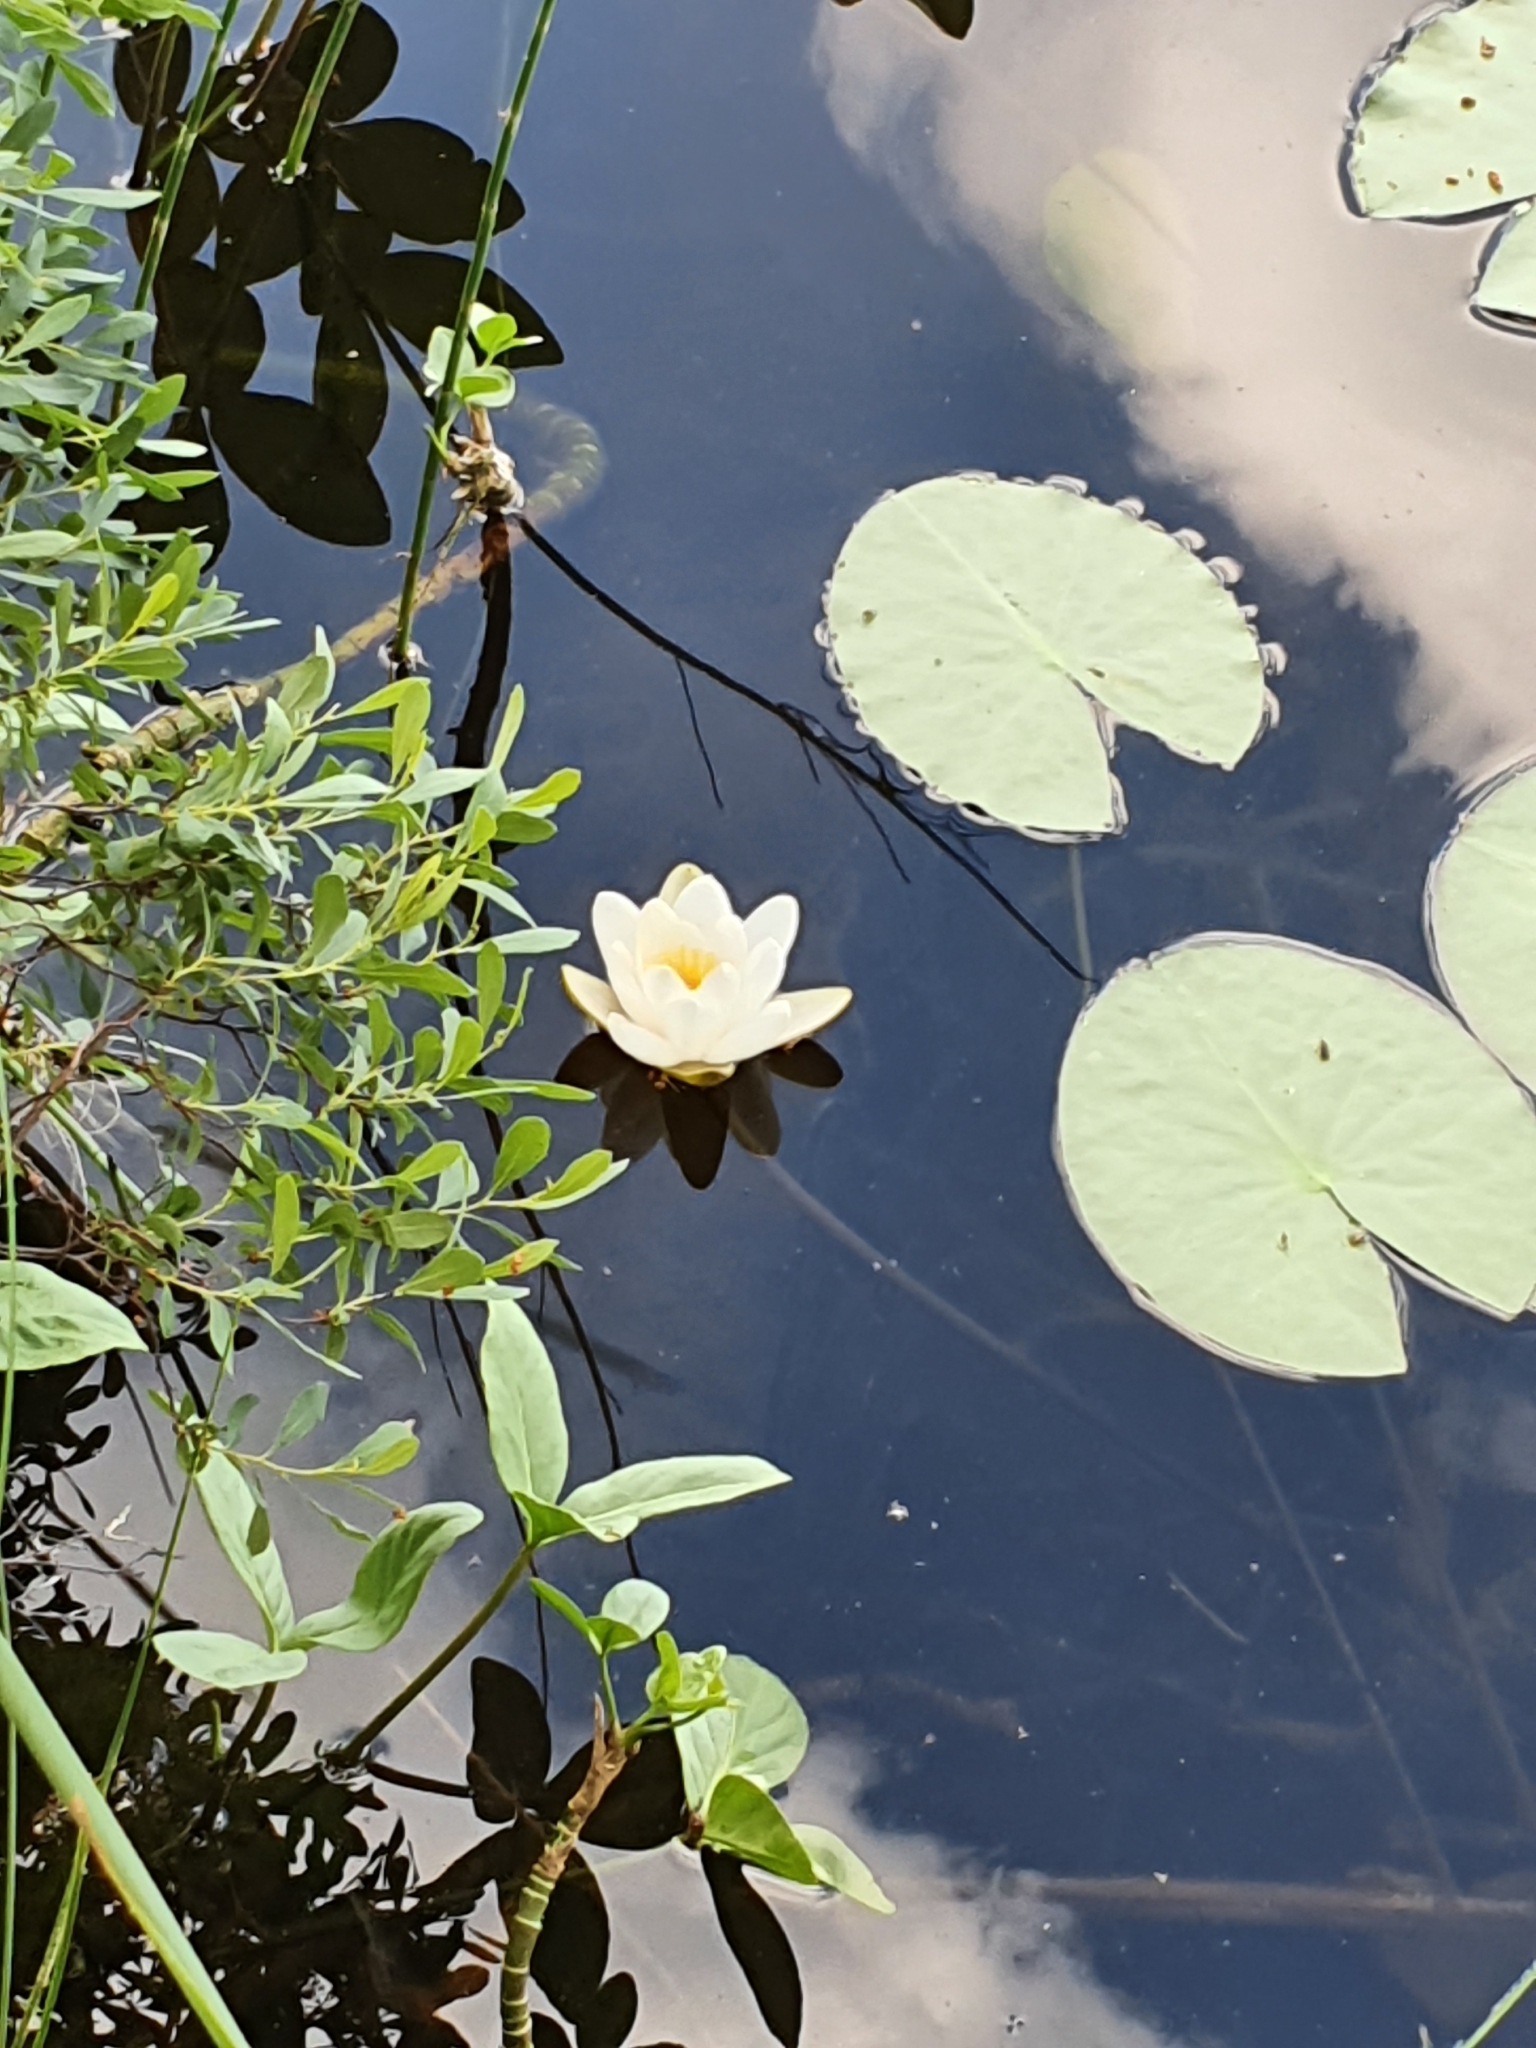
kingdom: Plantae
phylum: Tracheophyta
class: Magnoliopsida
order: Nymphaeales
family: Nymphaeaceae
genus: Nymphaea
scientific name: Nymphaea alba
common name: White water-lily
